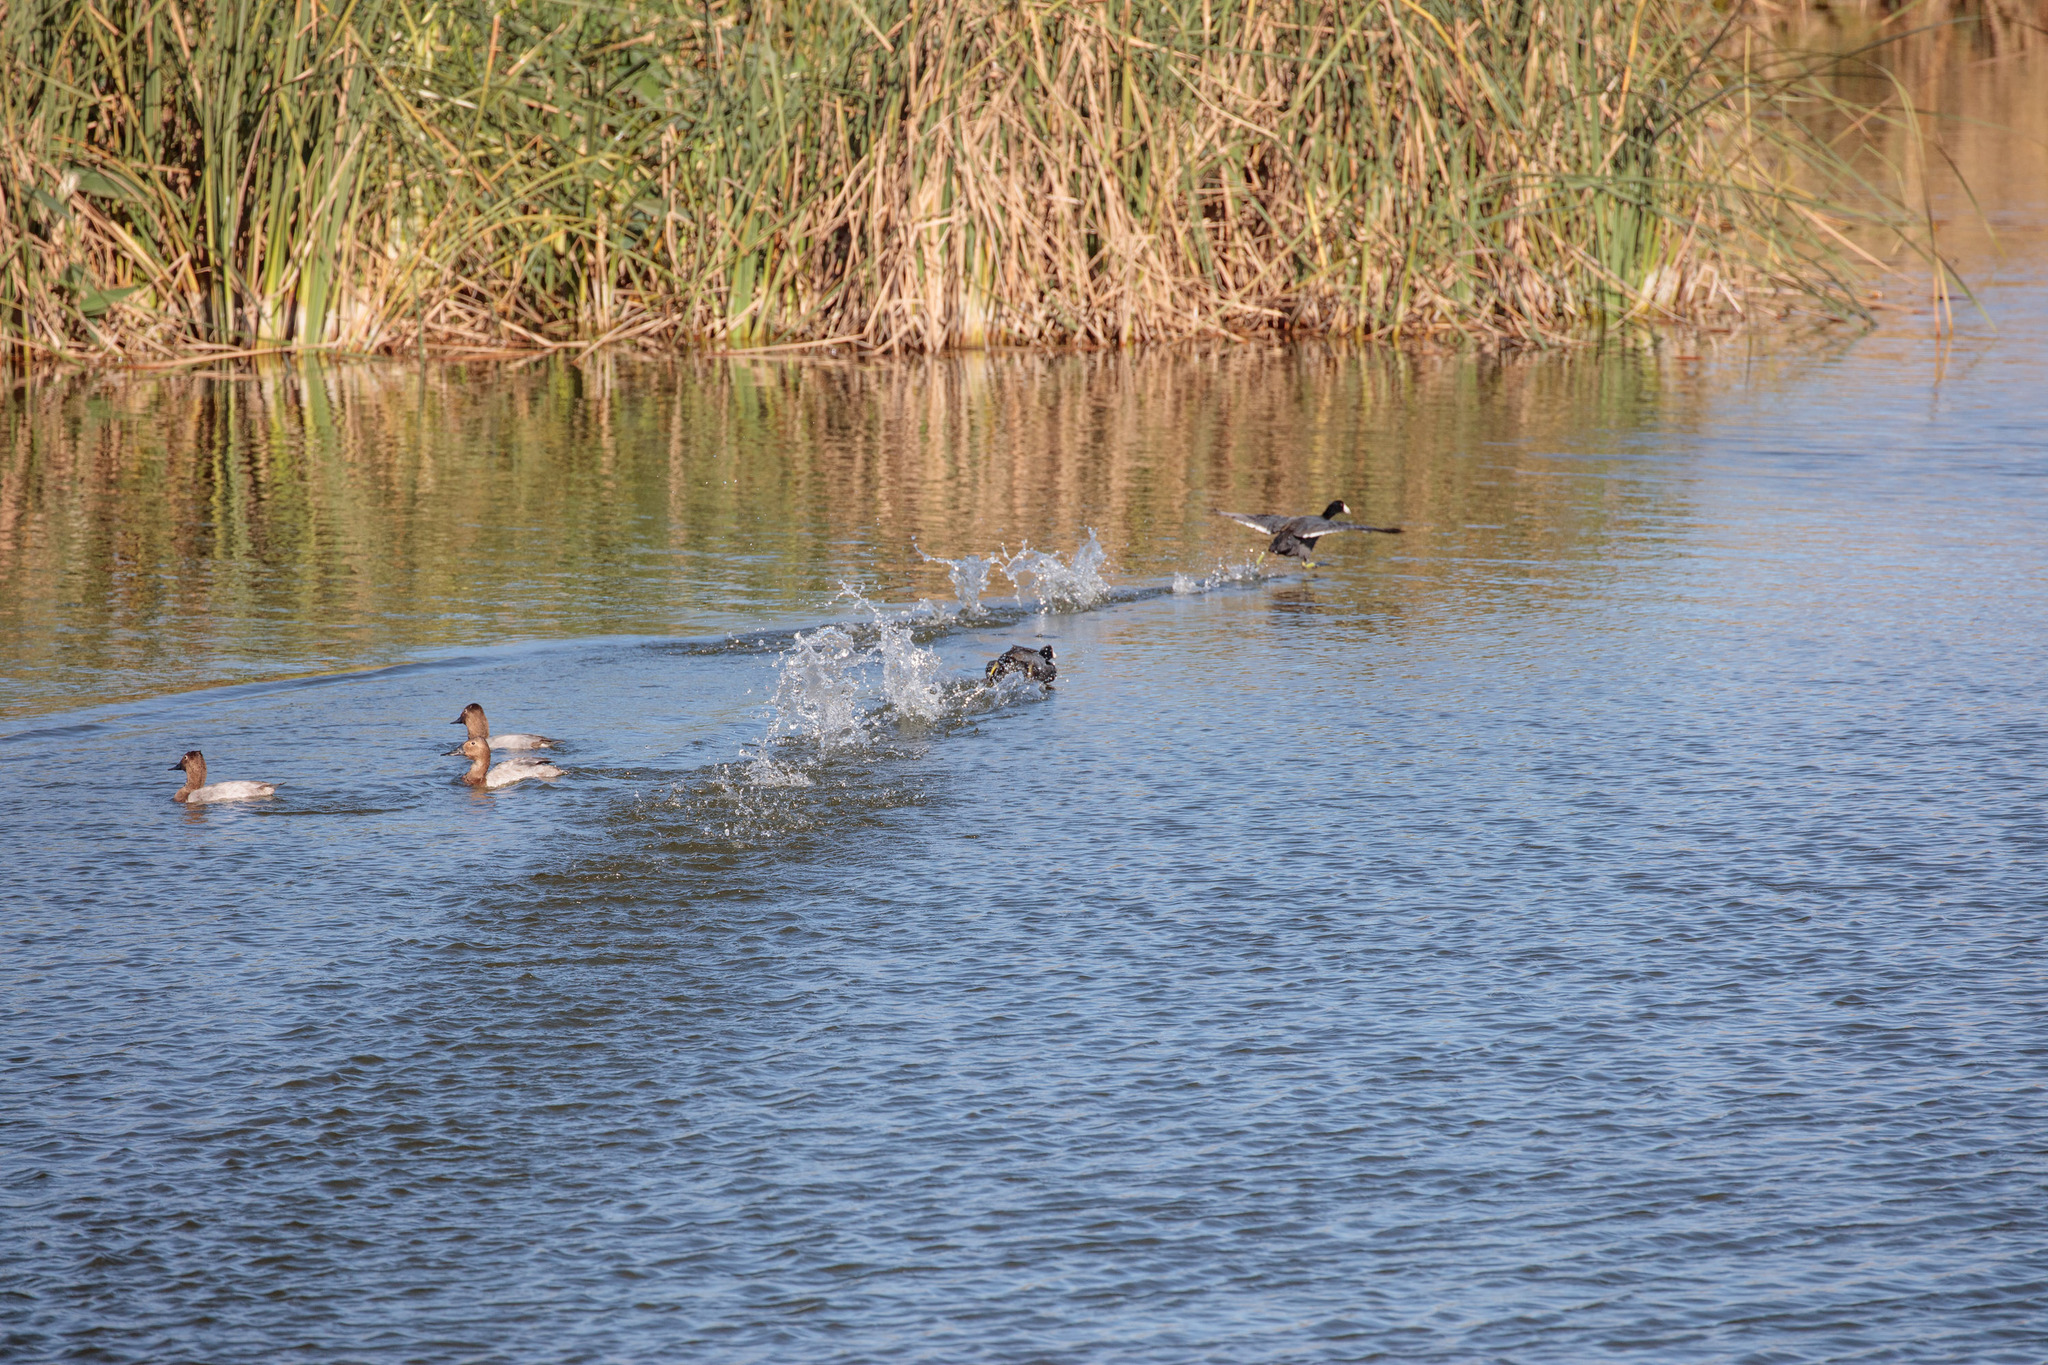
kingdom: Animalia
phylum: Chordata
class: Aves
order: Gruiformes
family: Rallidae
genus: Fulica
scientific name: Fulica americana
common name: American coot
